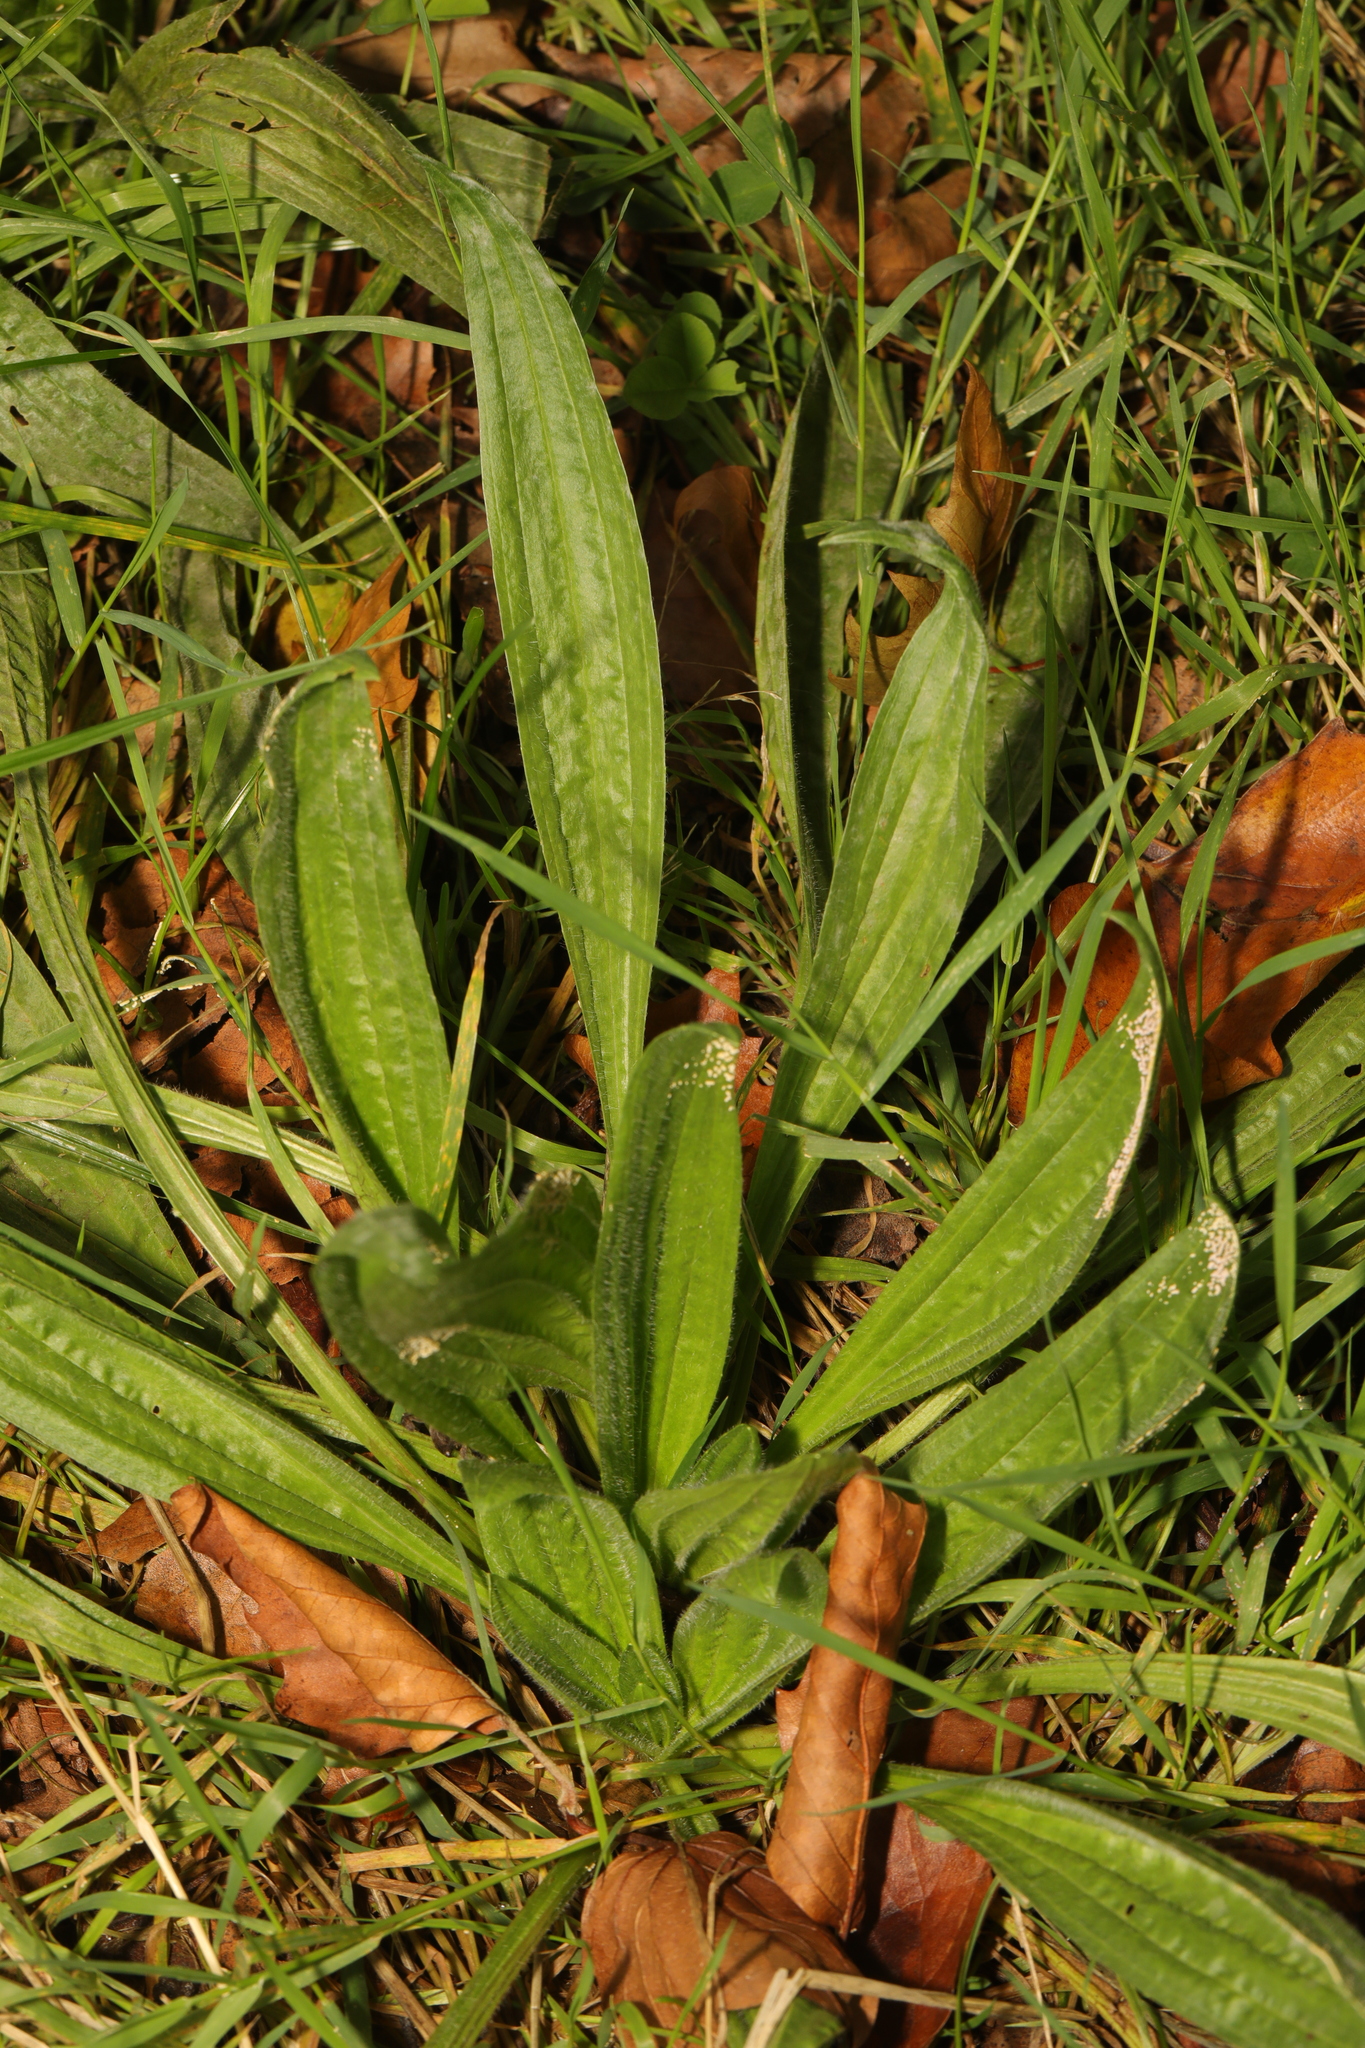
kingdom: Plantae
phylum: Tracheophyta
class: Magnoliopsida
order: Lamiales
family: Plantaginaceae
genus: Plantago
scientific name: Plantago lanceolata
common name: Ribwort plantain
